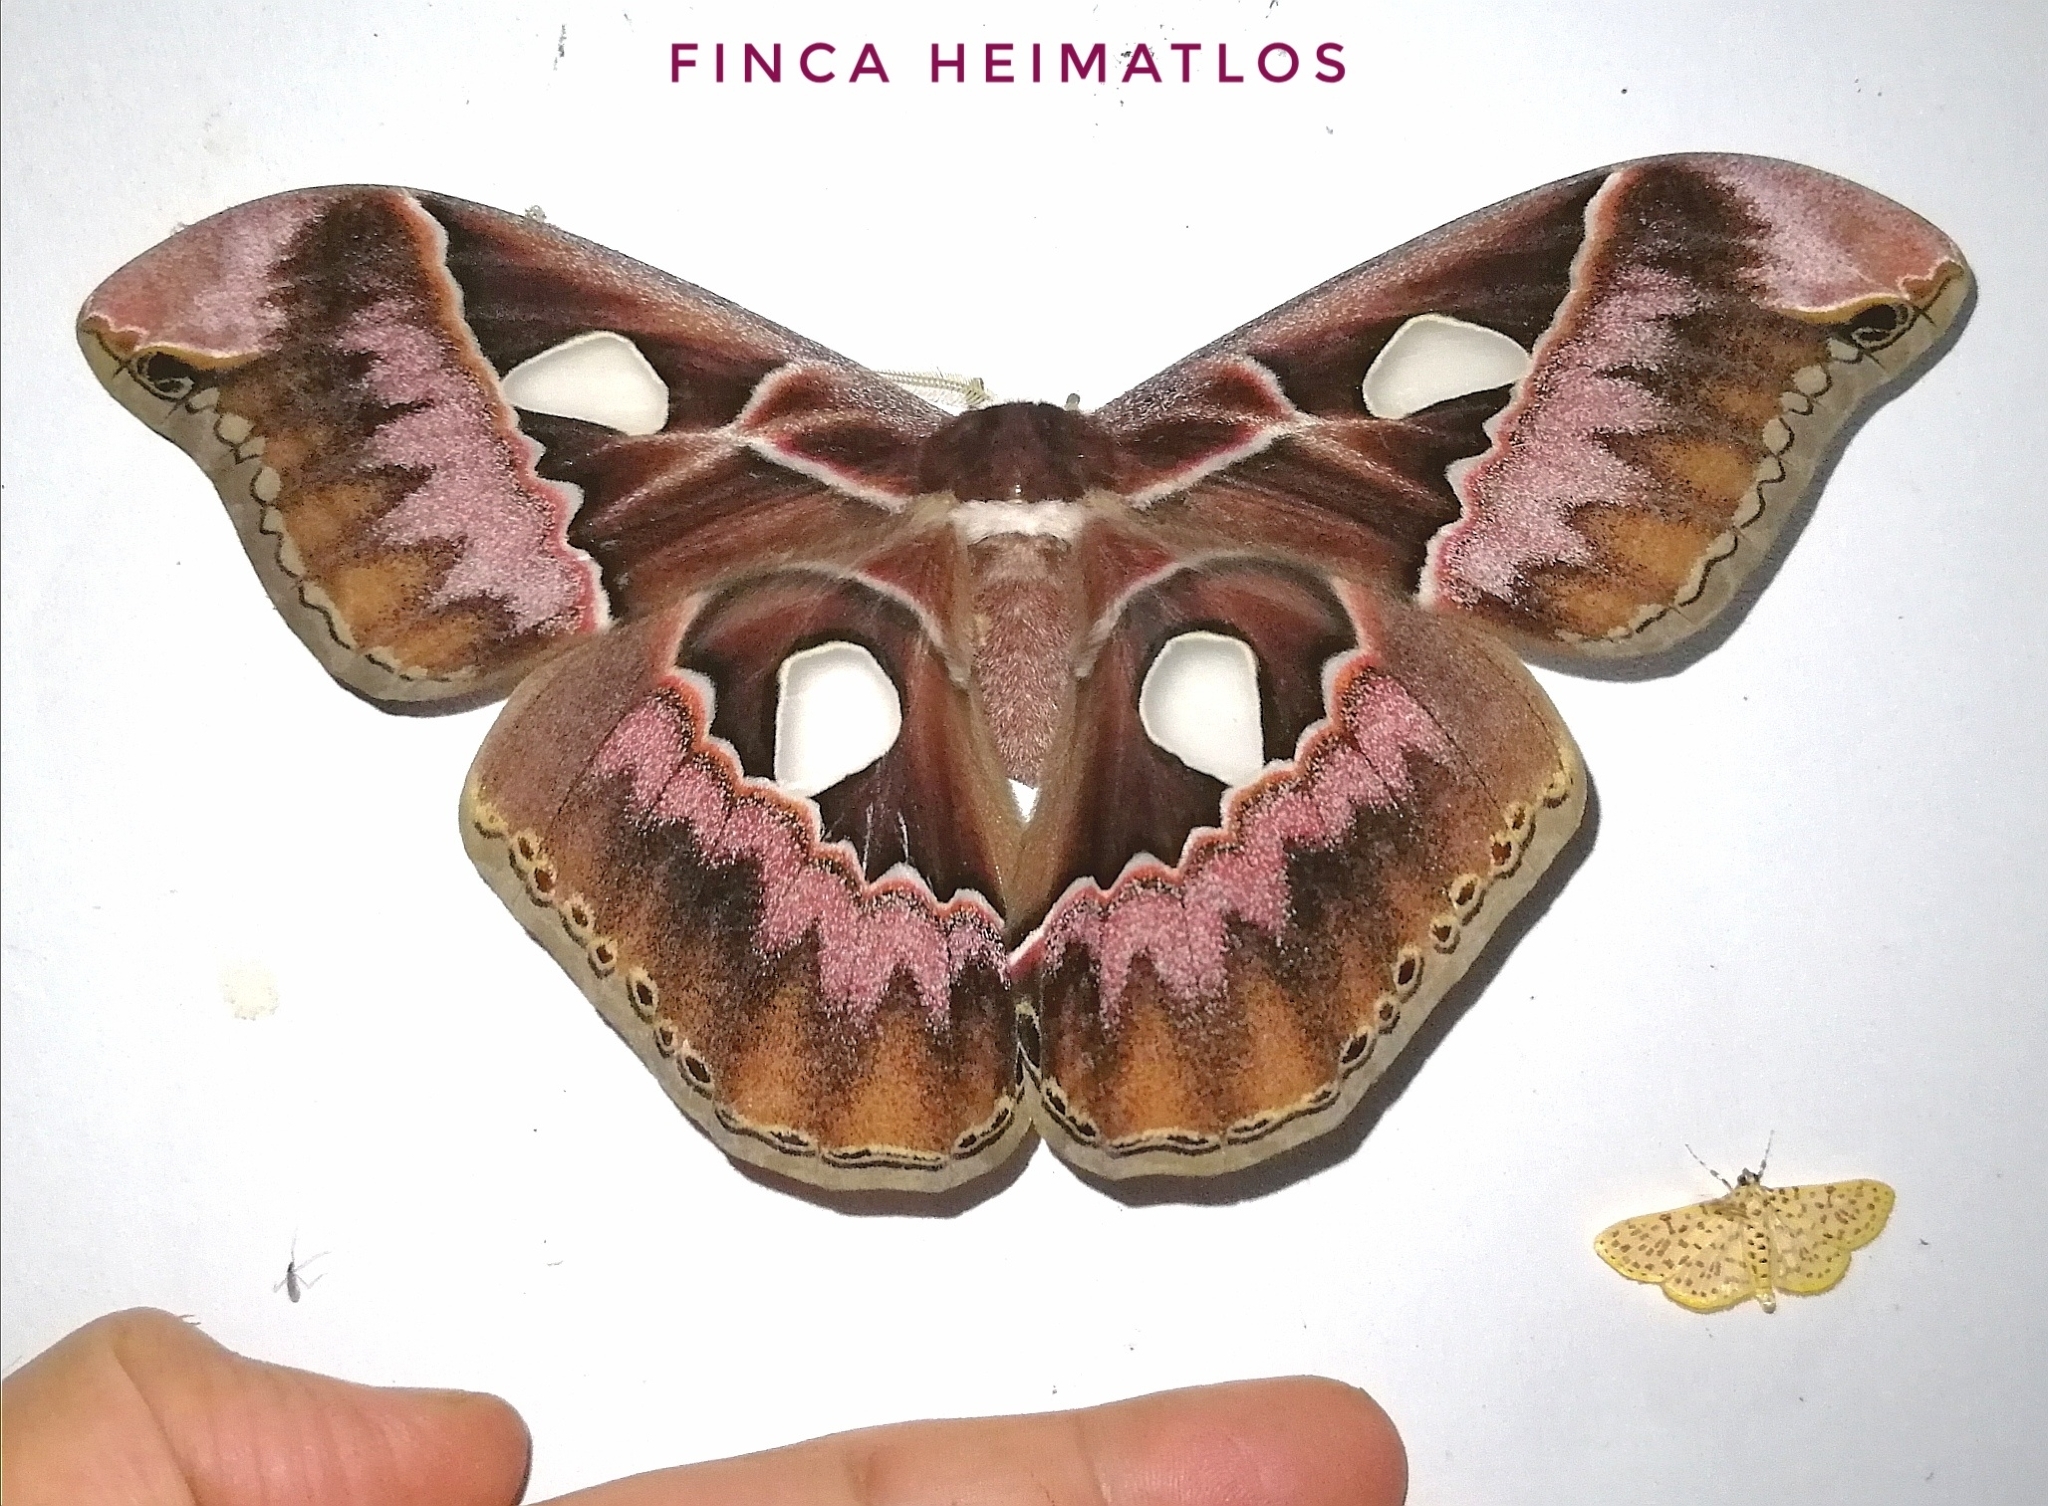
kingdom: Animalia
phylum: Arthropoda
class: Insecta
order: Lepidoptera
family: Saturniidae
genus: Rothschildia
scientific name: Rothschildia lebeau
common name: Lebeau's rothschildia
